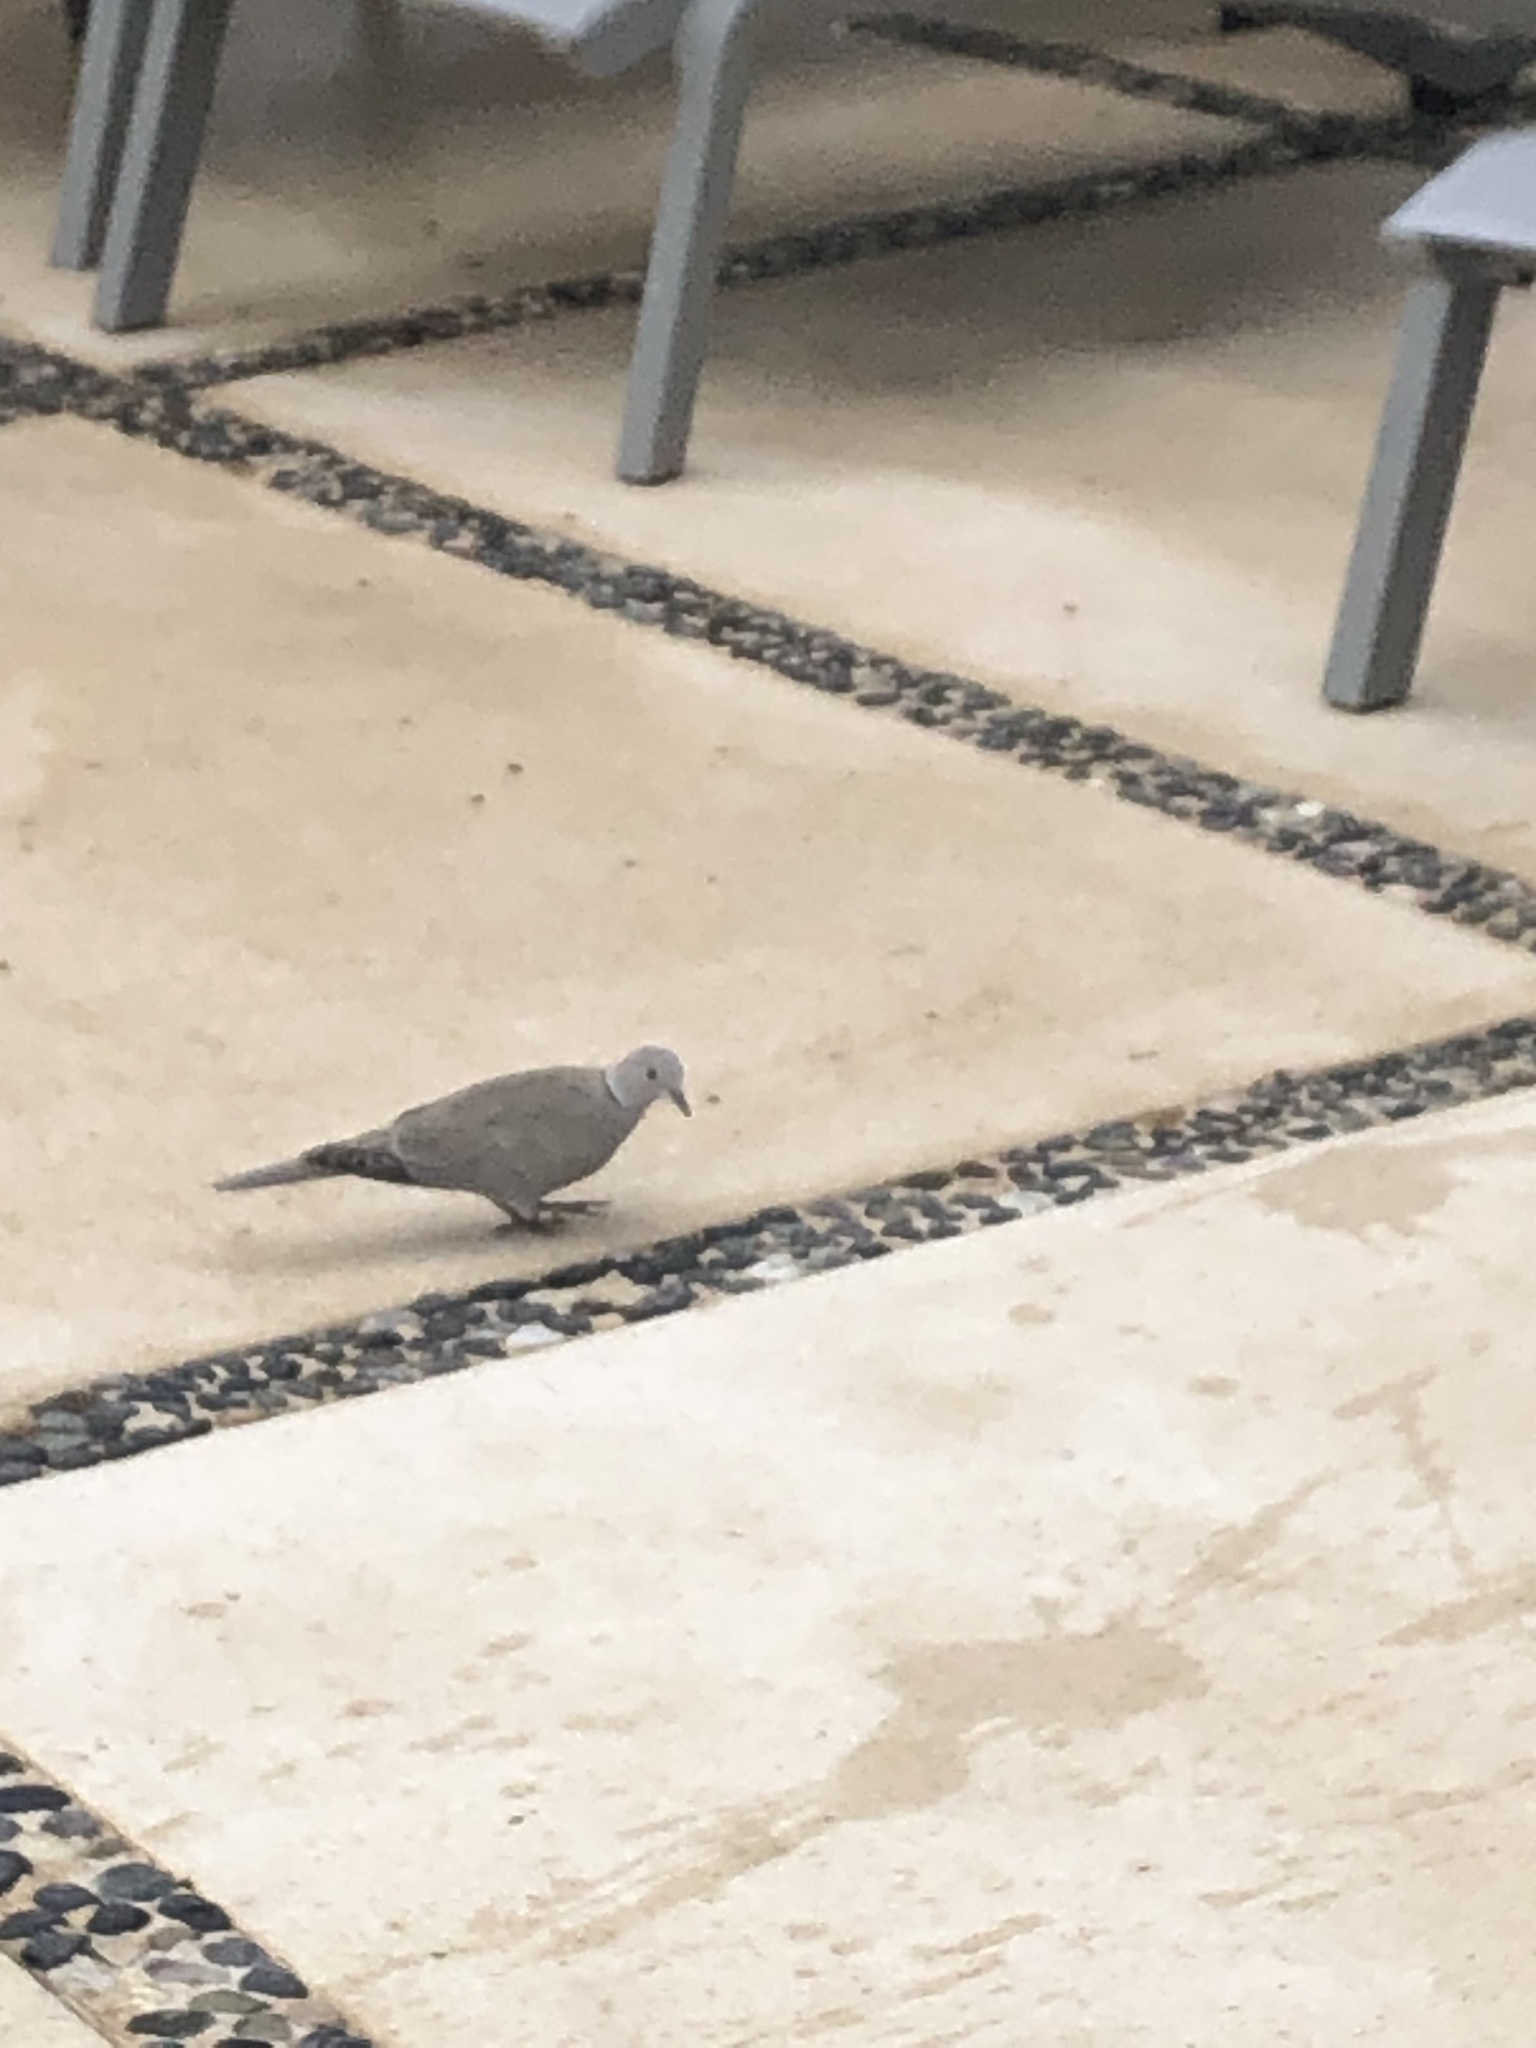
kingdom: Animalia
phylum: Chordata
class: Aves
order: Columbiformes
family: Columbidae
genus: Streptopelia
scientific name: Streptopelia decaocto
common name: Eurasian collared dove
